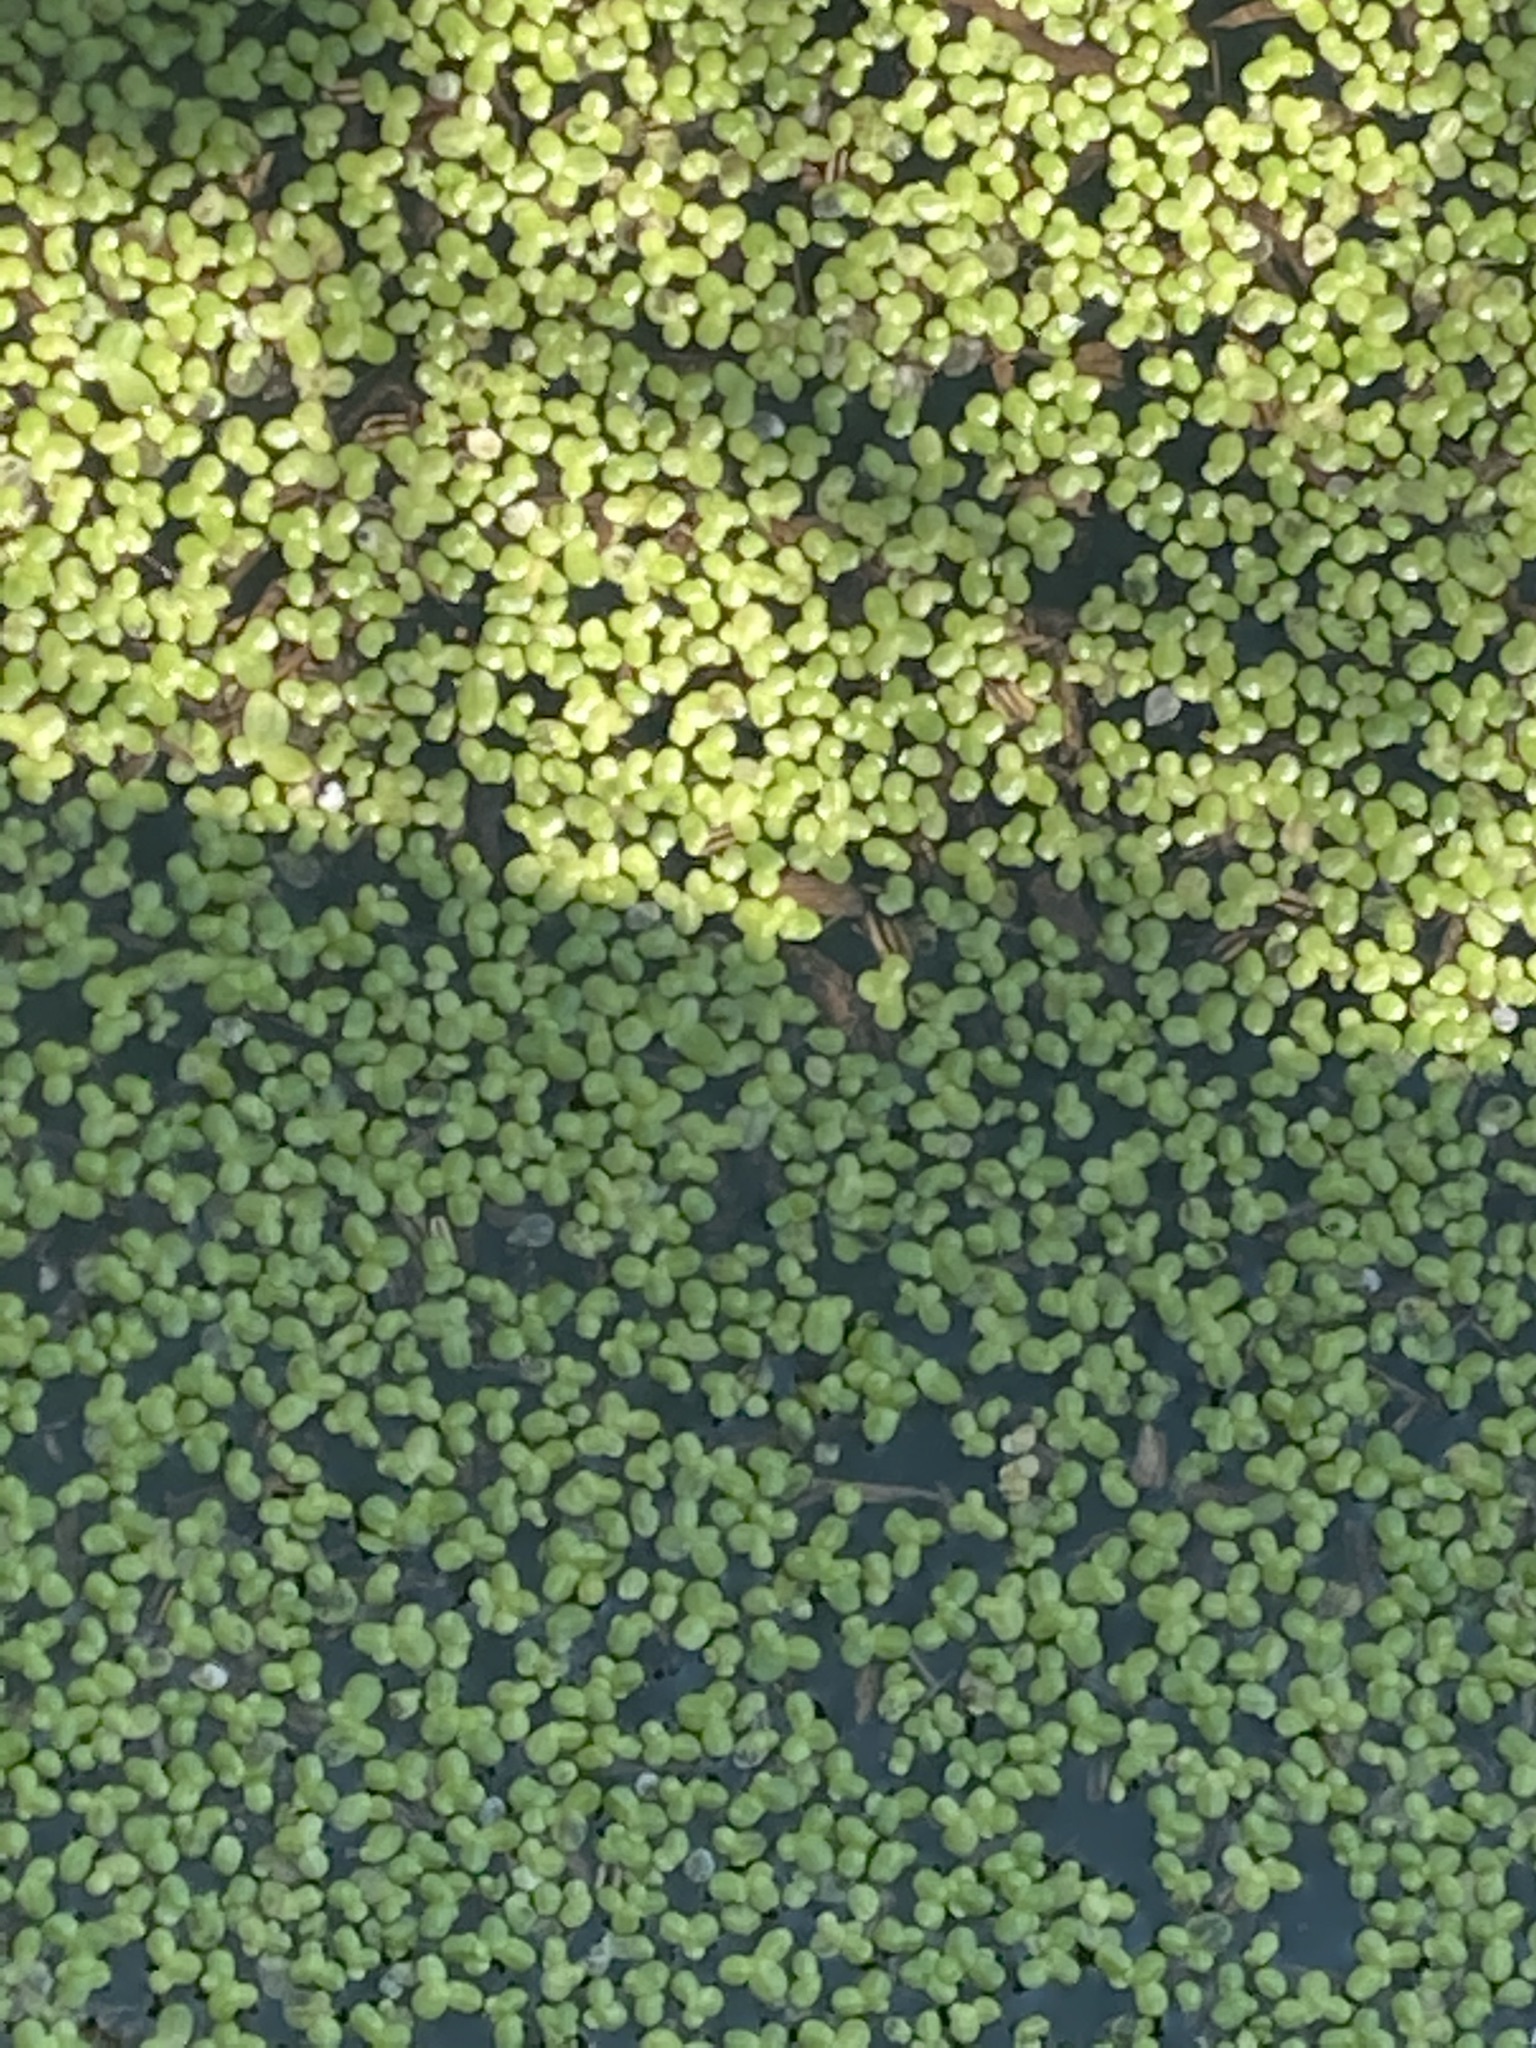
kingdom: Plantae
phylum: Tracheophyta
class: Liliopsida
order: Alismatales
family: Araceae
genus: Lemna
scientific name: Lemna minor
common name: Common duckweed
